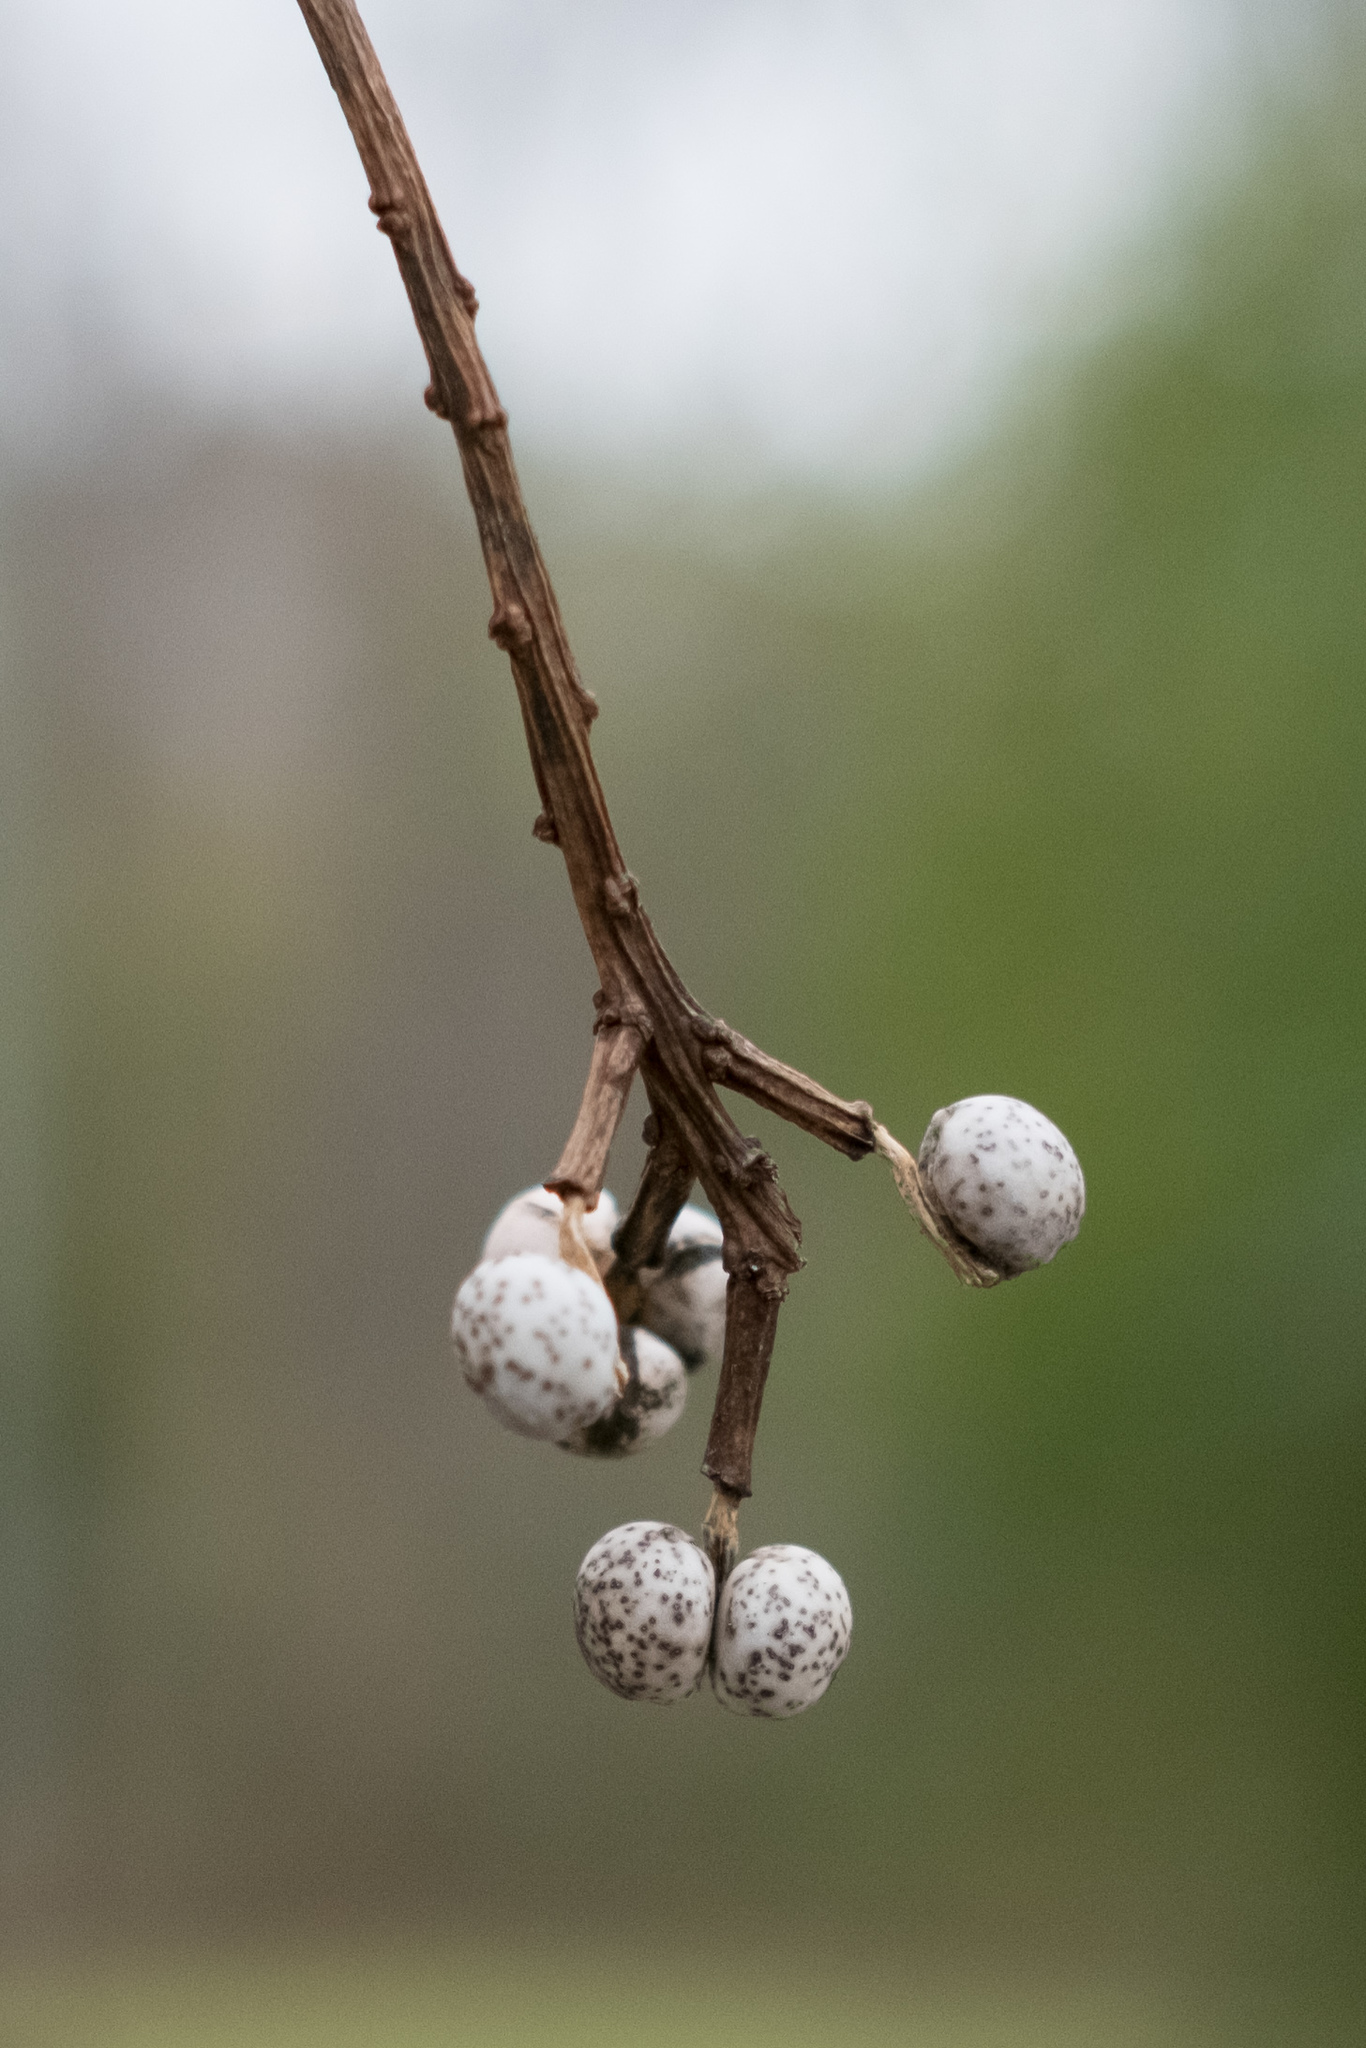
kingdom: Plantae
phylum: Tracheophyta
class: Magnoliopsida
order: Malpighiales
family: Euphorbiaceae
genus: Triadica
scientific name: Triadica sebifera
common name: Chinese tallow
